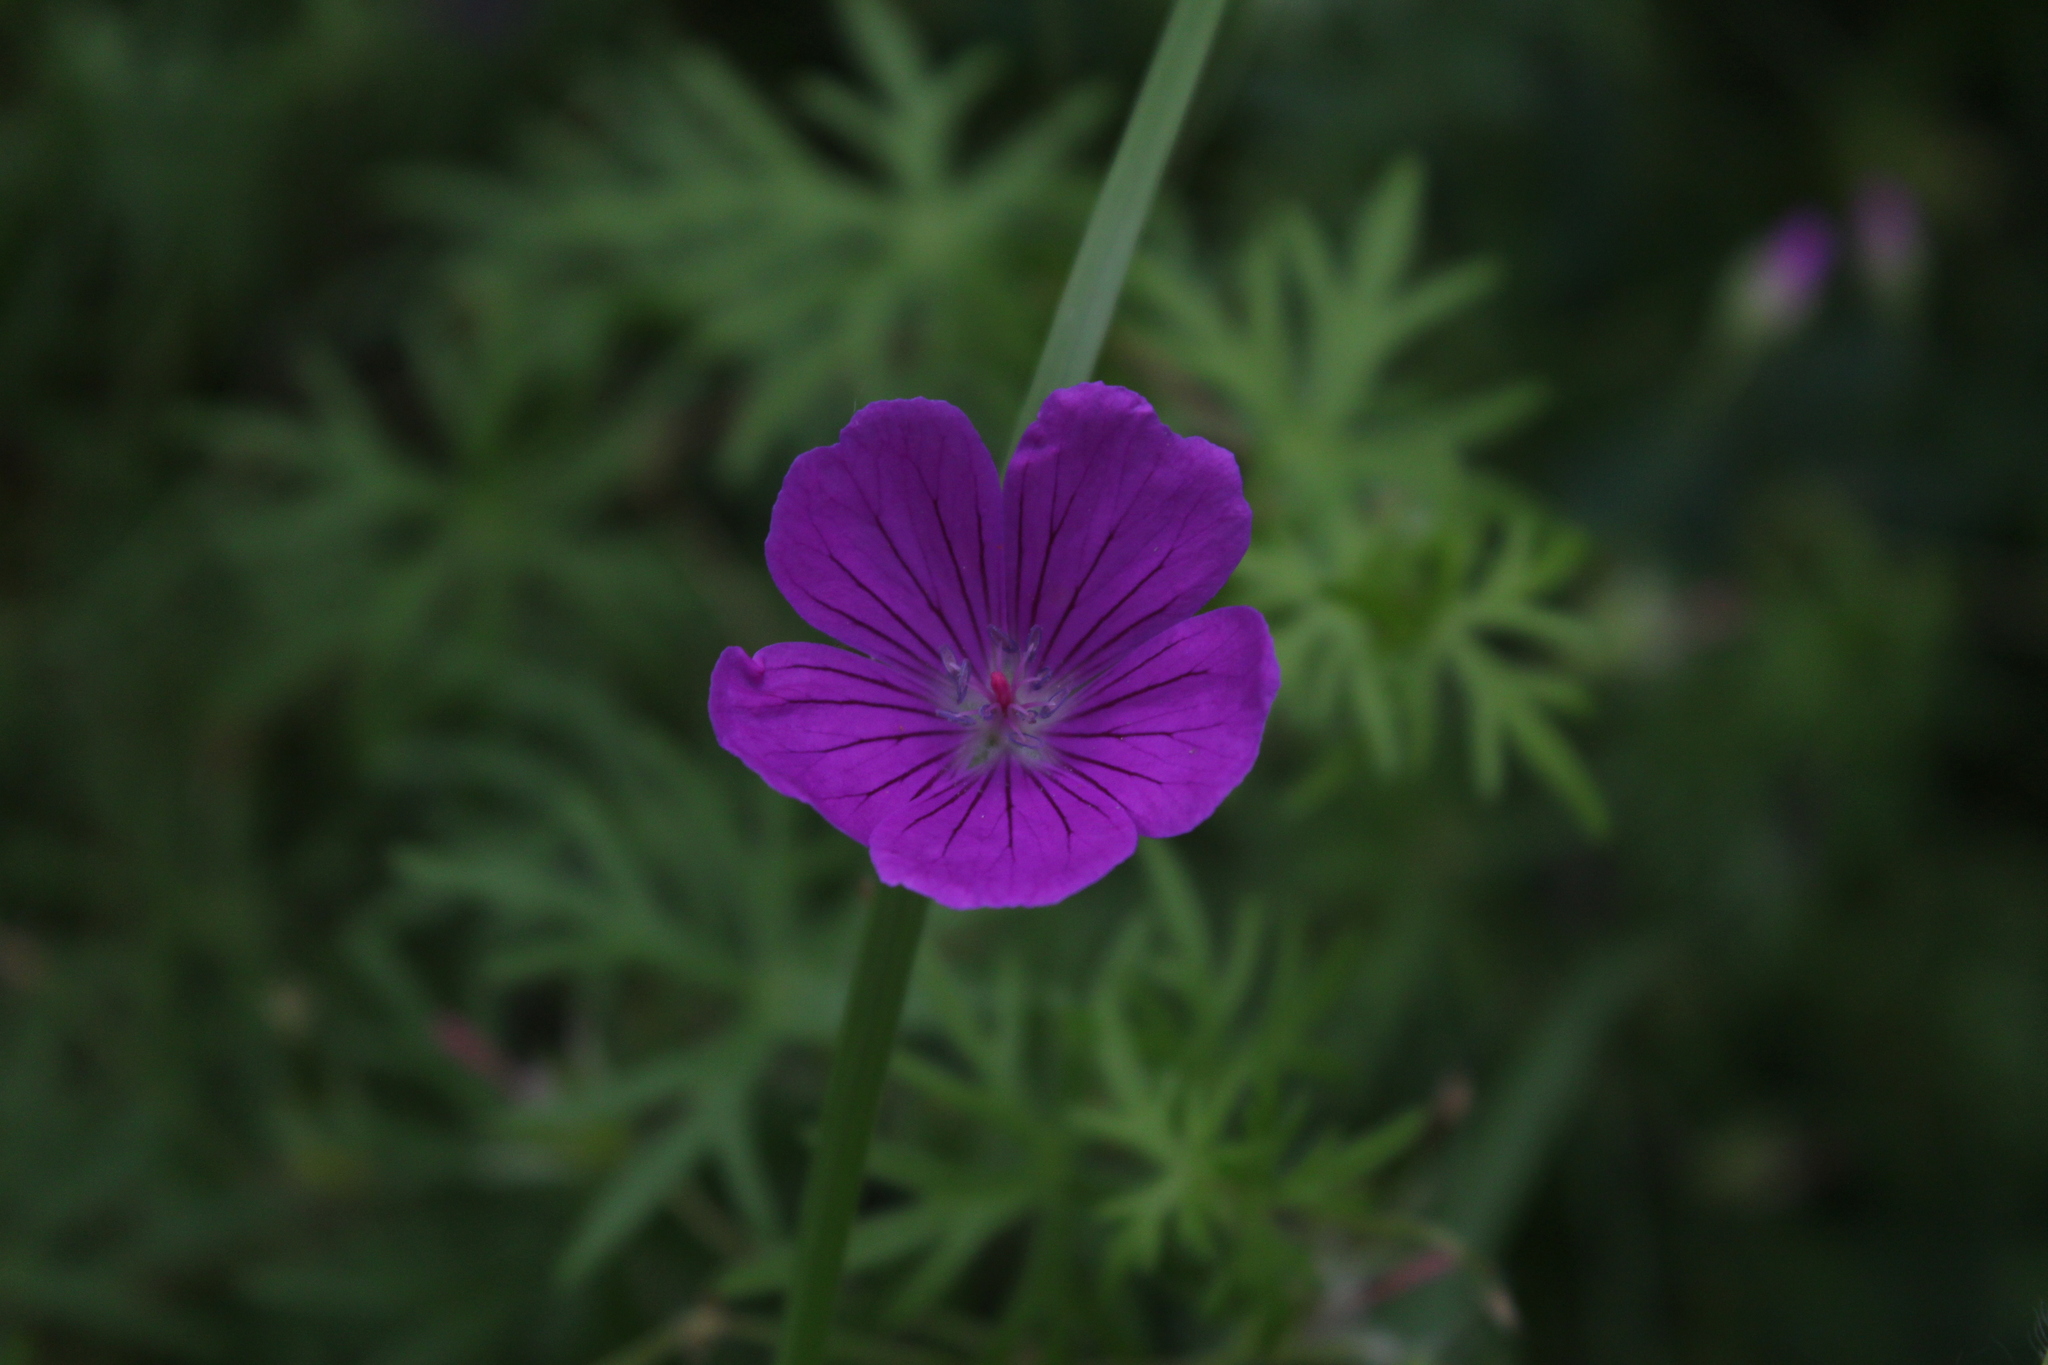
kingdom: Plantae
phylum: Tracheophyta
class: Magnoliopsida
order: Geraniales
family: Geraniaceae
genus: Geranium
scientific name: Geranium sanguineum
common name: Bloody crane's-bill
